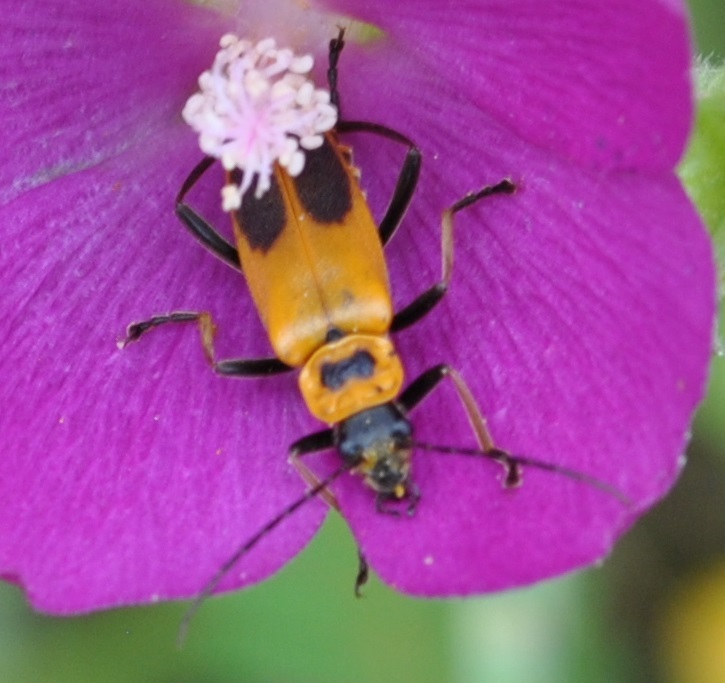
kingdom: Animalia
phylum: Arthropoda
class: Insecta
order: Coleoptera
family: Cantharidae
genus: Chauliognathus
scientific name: Chauliognathus pensylvanicus
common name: Goldenrod soldier beetle
